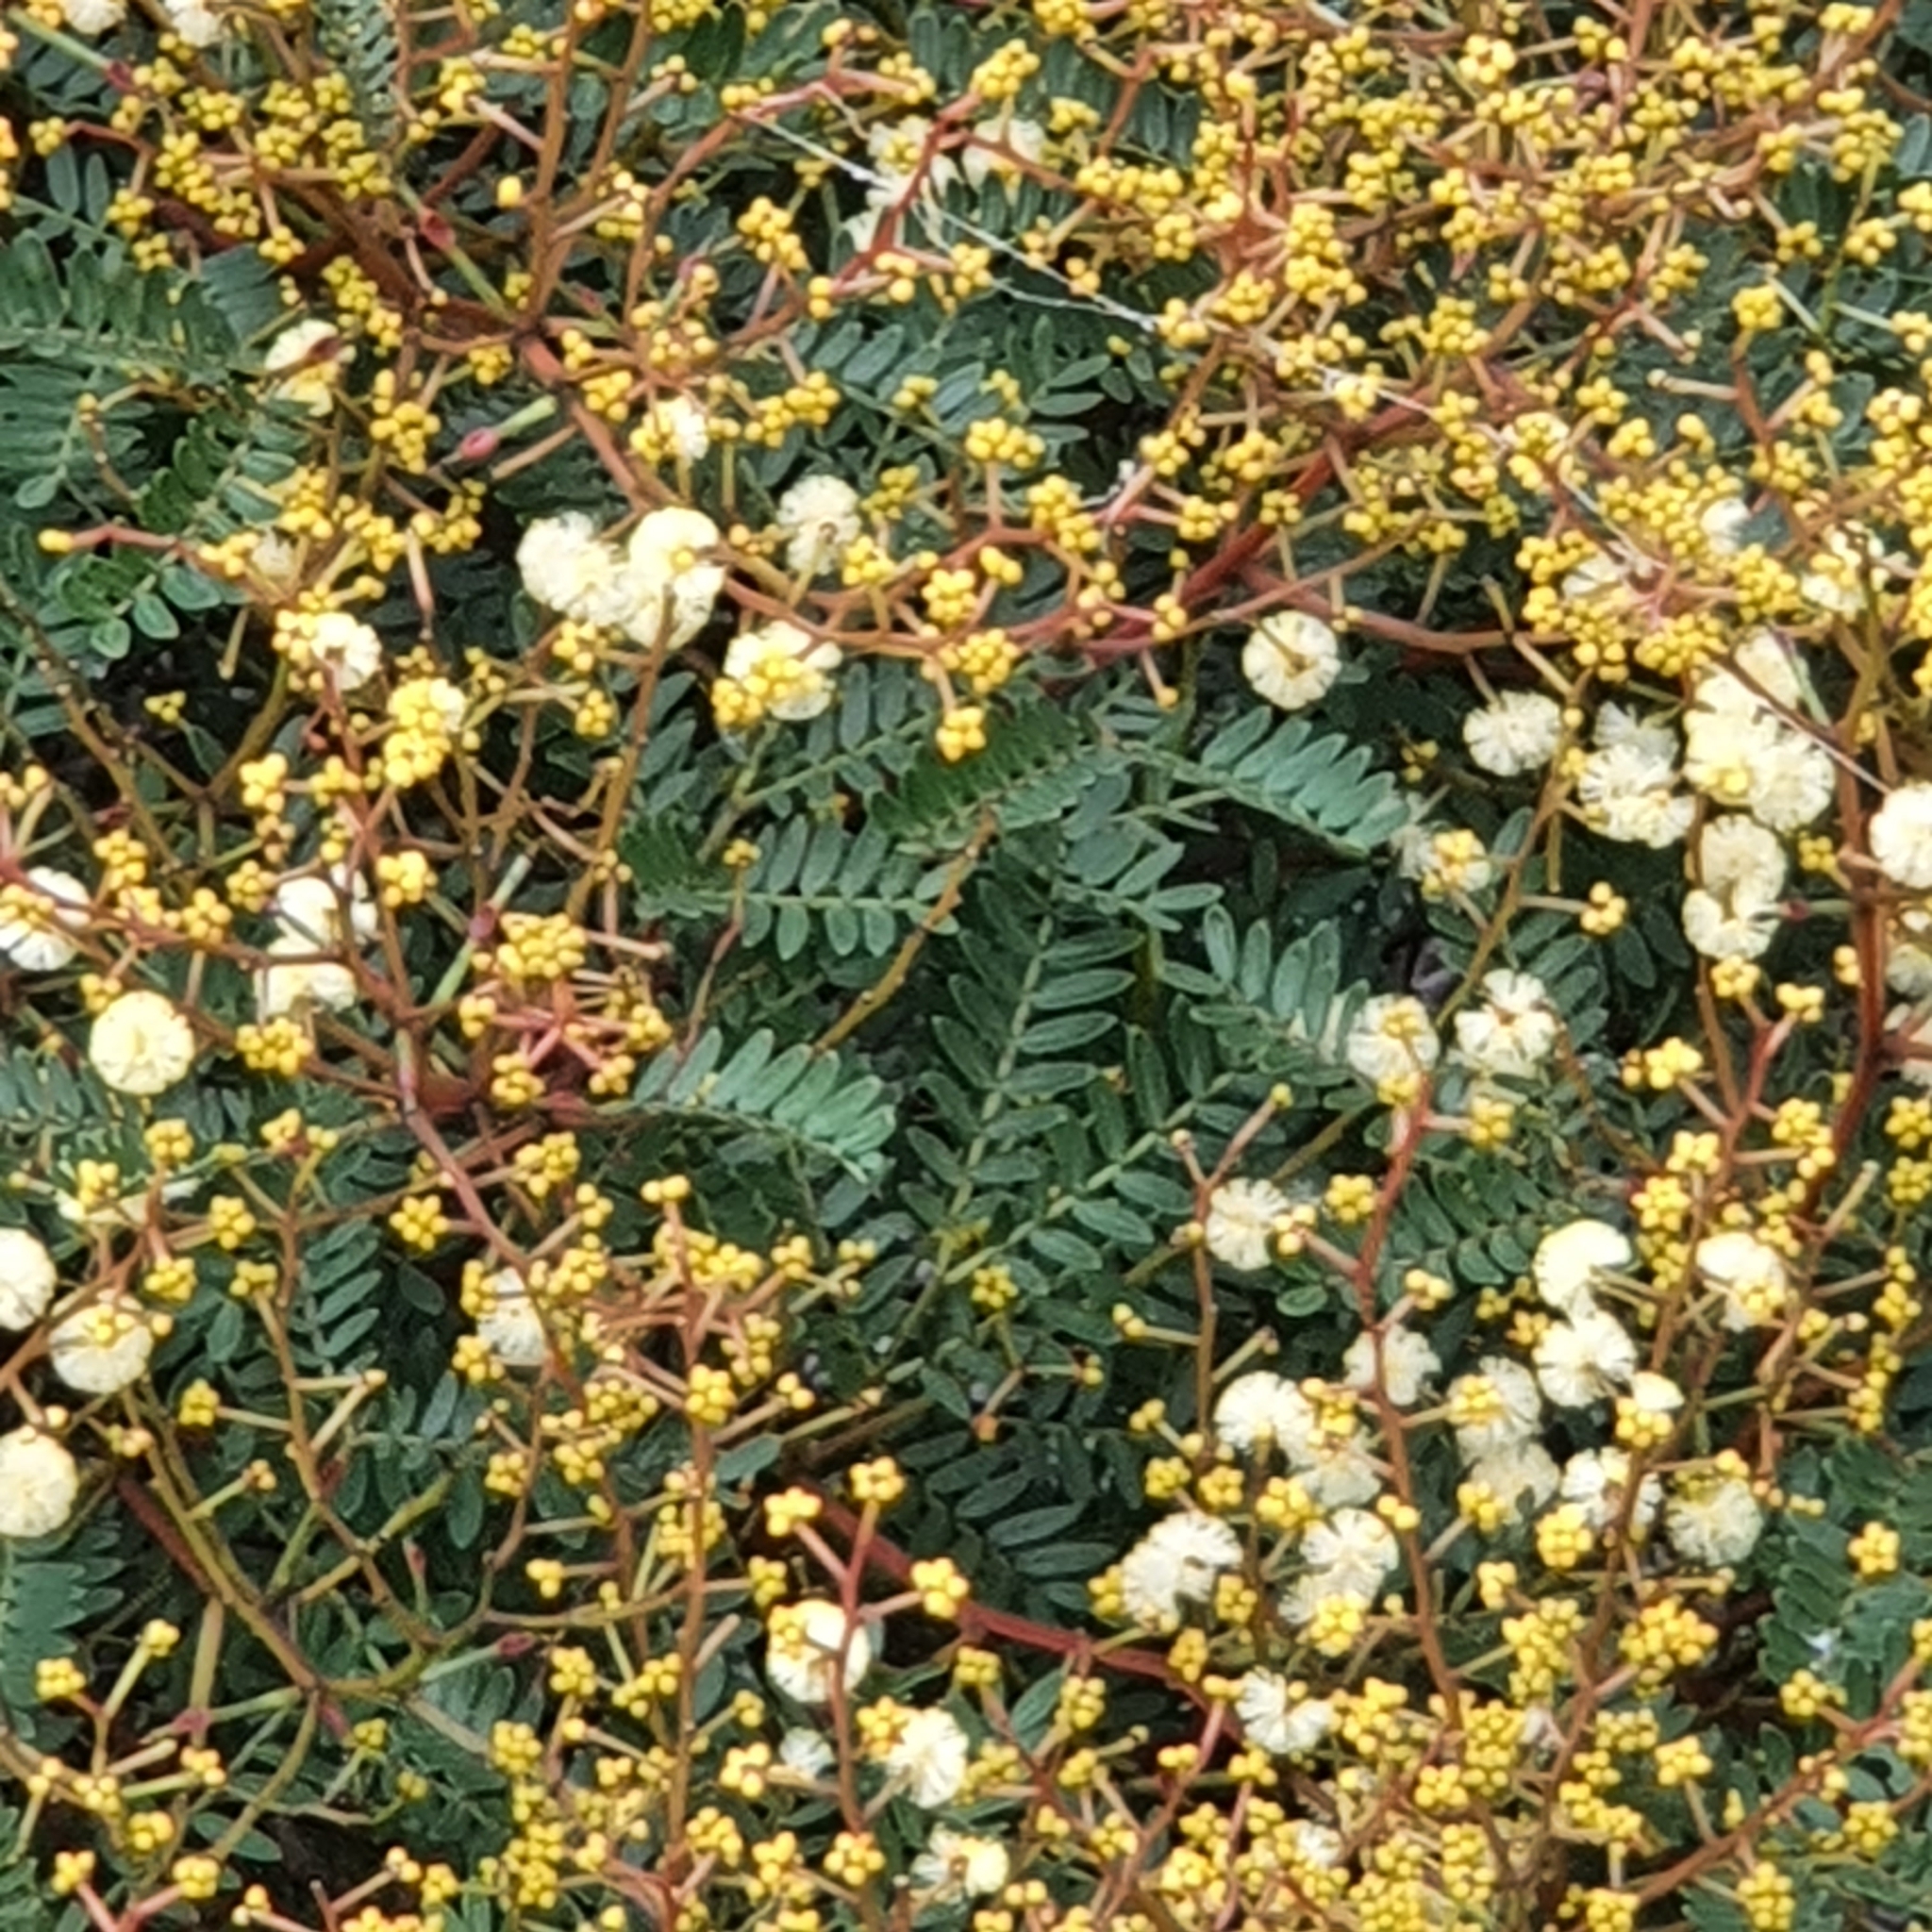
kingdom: Plantae
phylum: Tracheophyta
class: Magnoliopsida
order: Fabales
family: Fabaceae
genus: Acacia
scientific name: Acacia terminalis
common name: Cedar wattle
